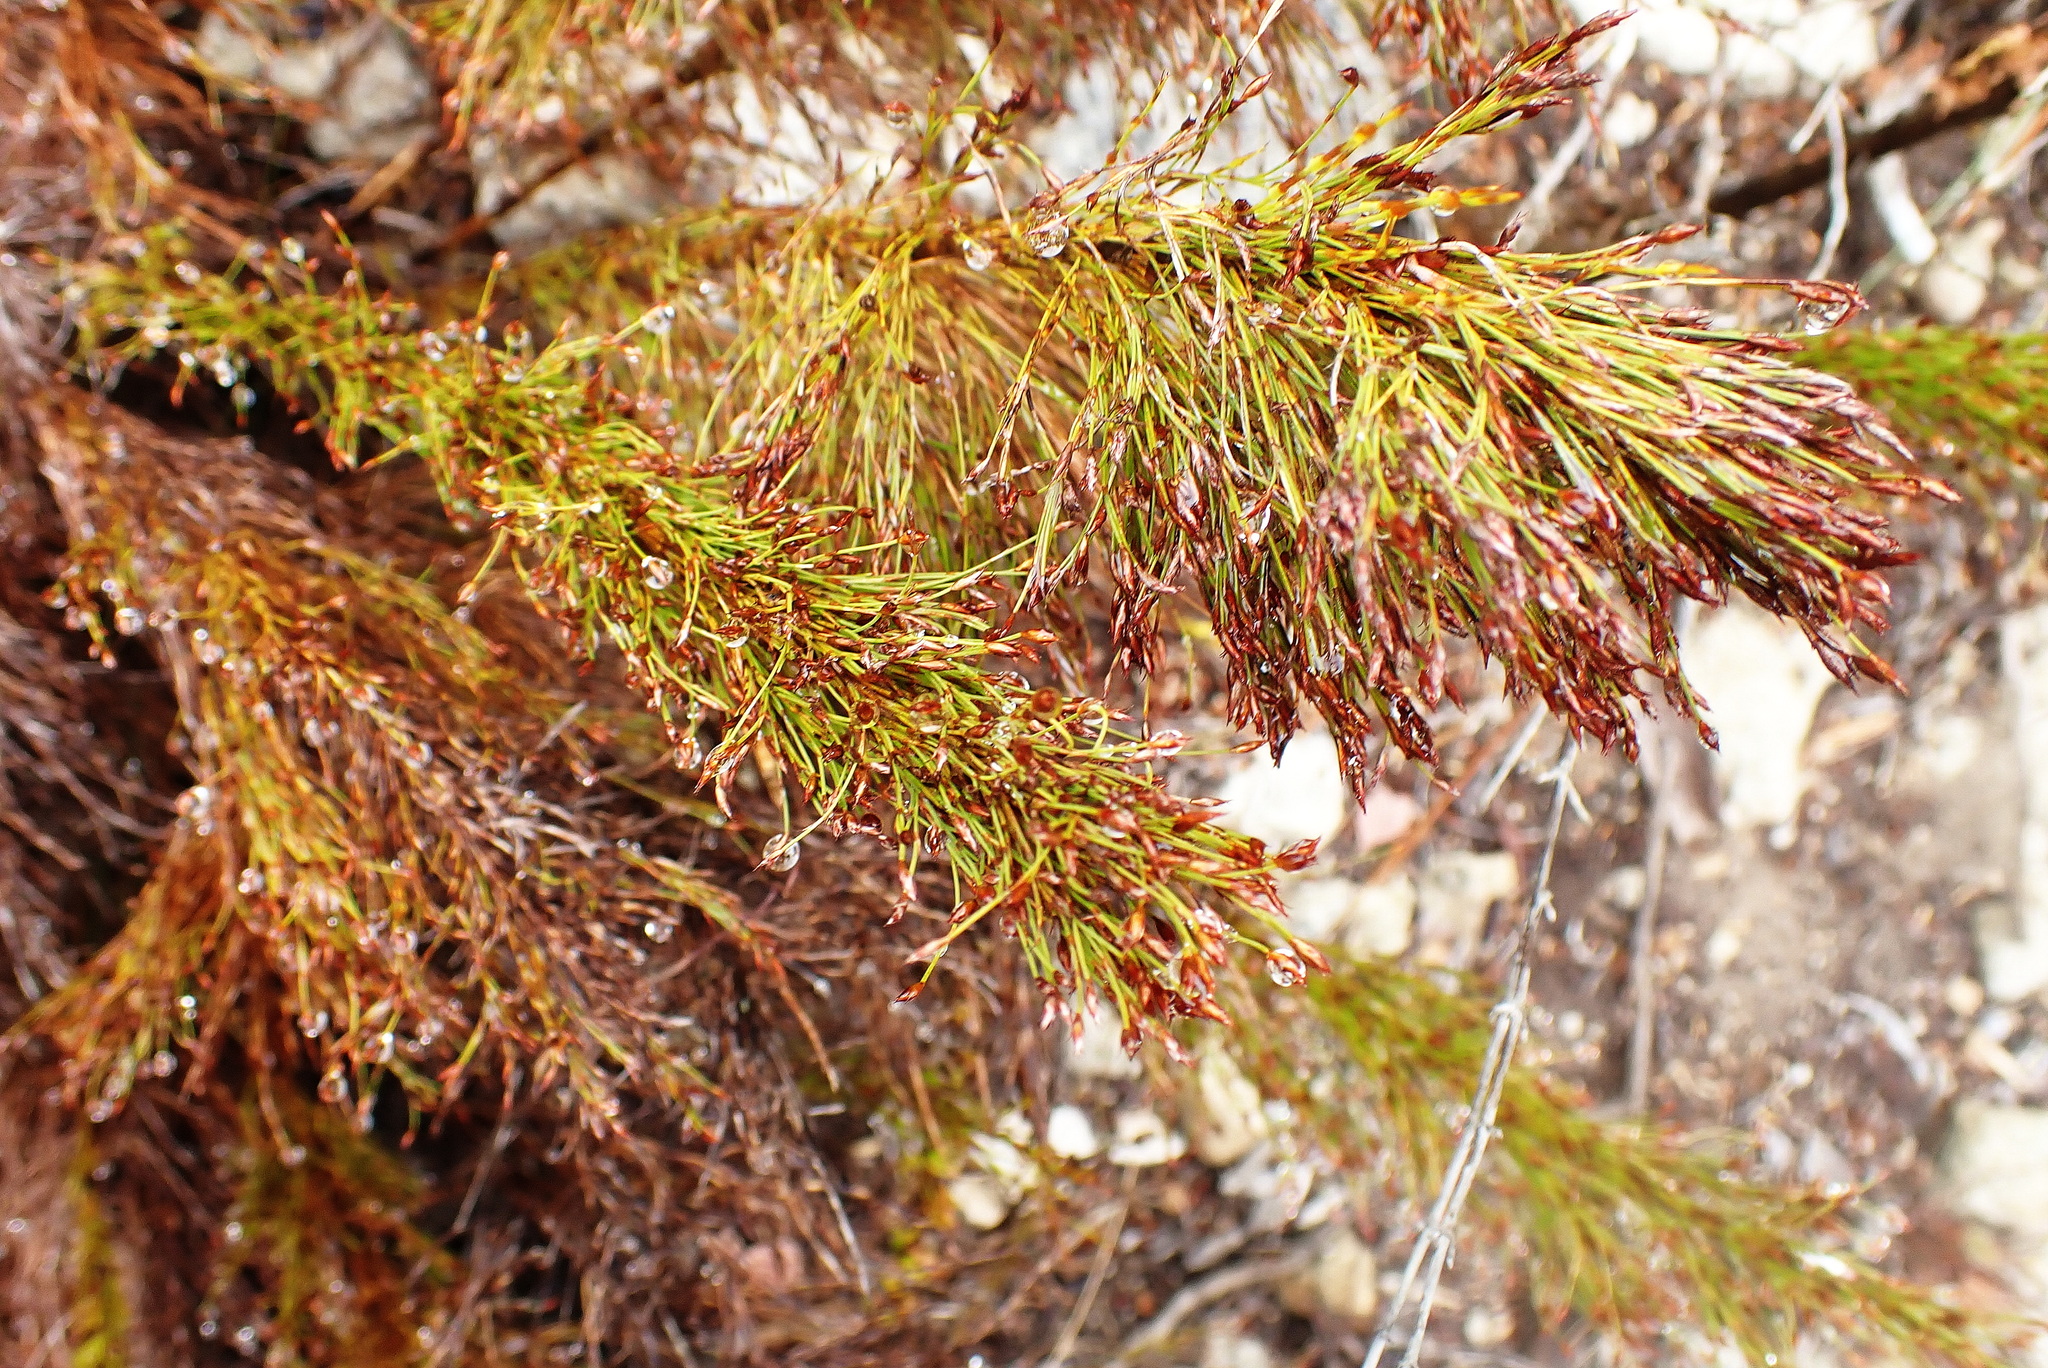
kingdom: Plantae
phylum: Tracheophyta
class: Liliopsida
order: Poales
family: Restionaceae
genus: Restio
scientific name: Restio paniculatus
